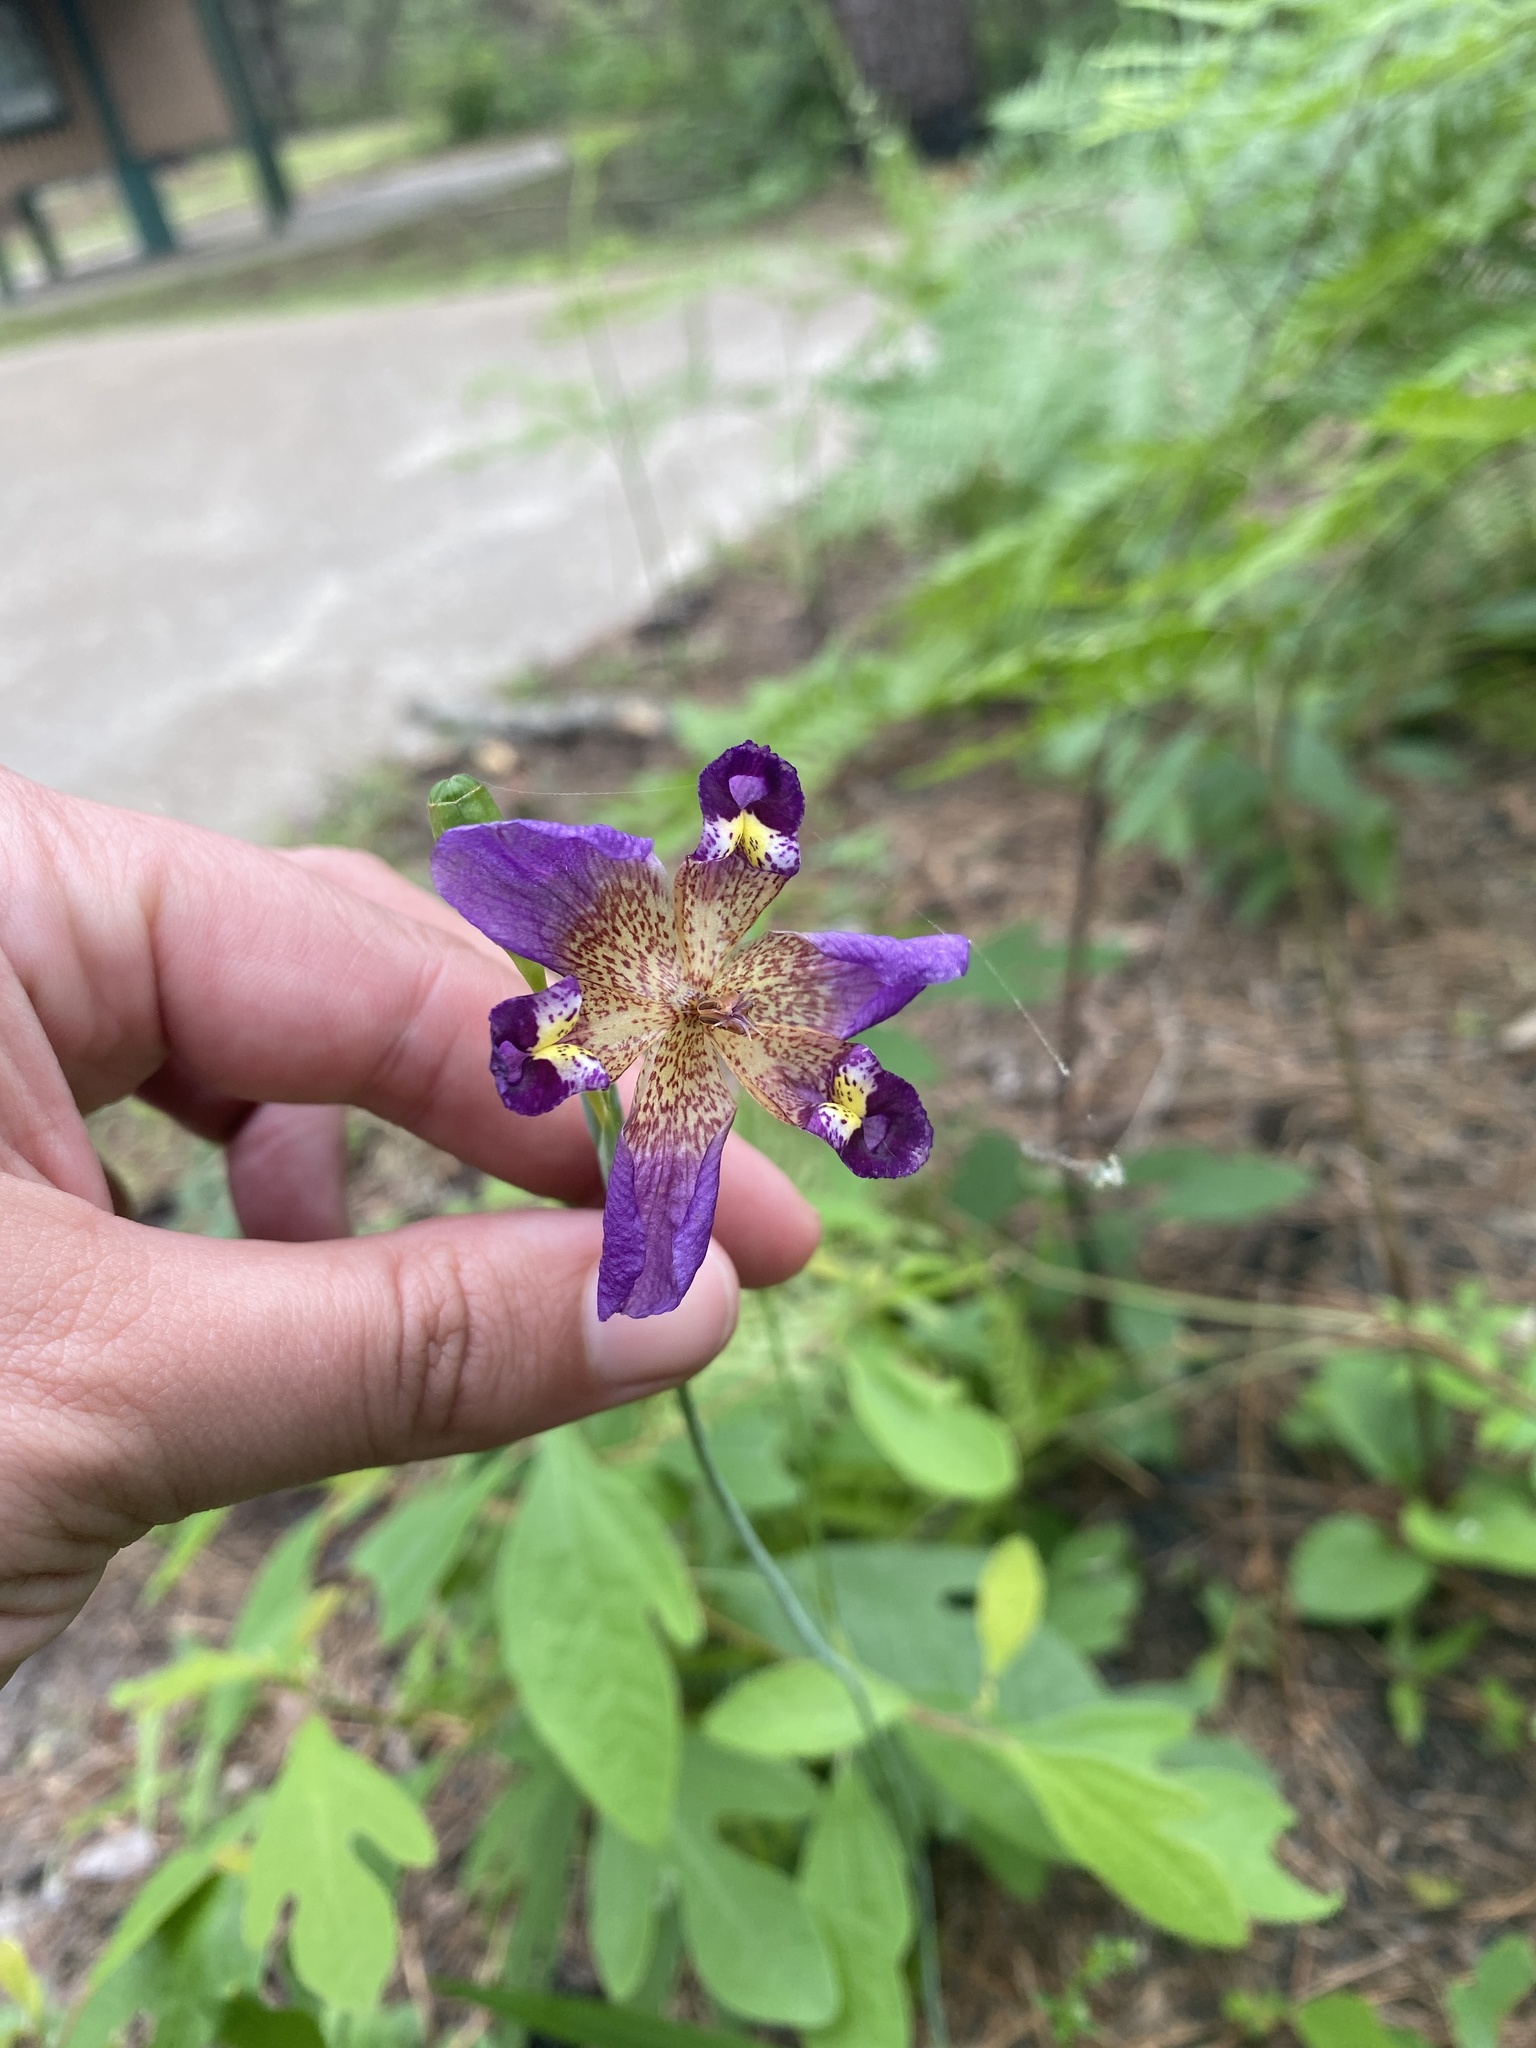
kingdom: Plantae
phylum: Tracheophyta
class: Liliopsida
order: Asparagales
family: Iridaceae
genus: Alophia
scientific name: Alophia drummondii
